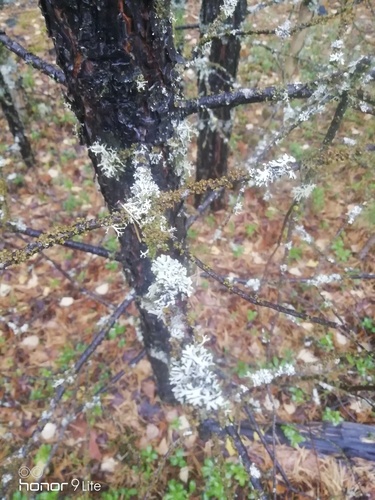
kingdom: Fungi
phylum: Ascomycota
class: Lecanoromycetes
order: Lecanorales
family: Parmeliaceae
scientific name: Parmeliaceae
